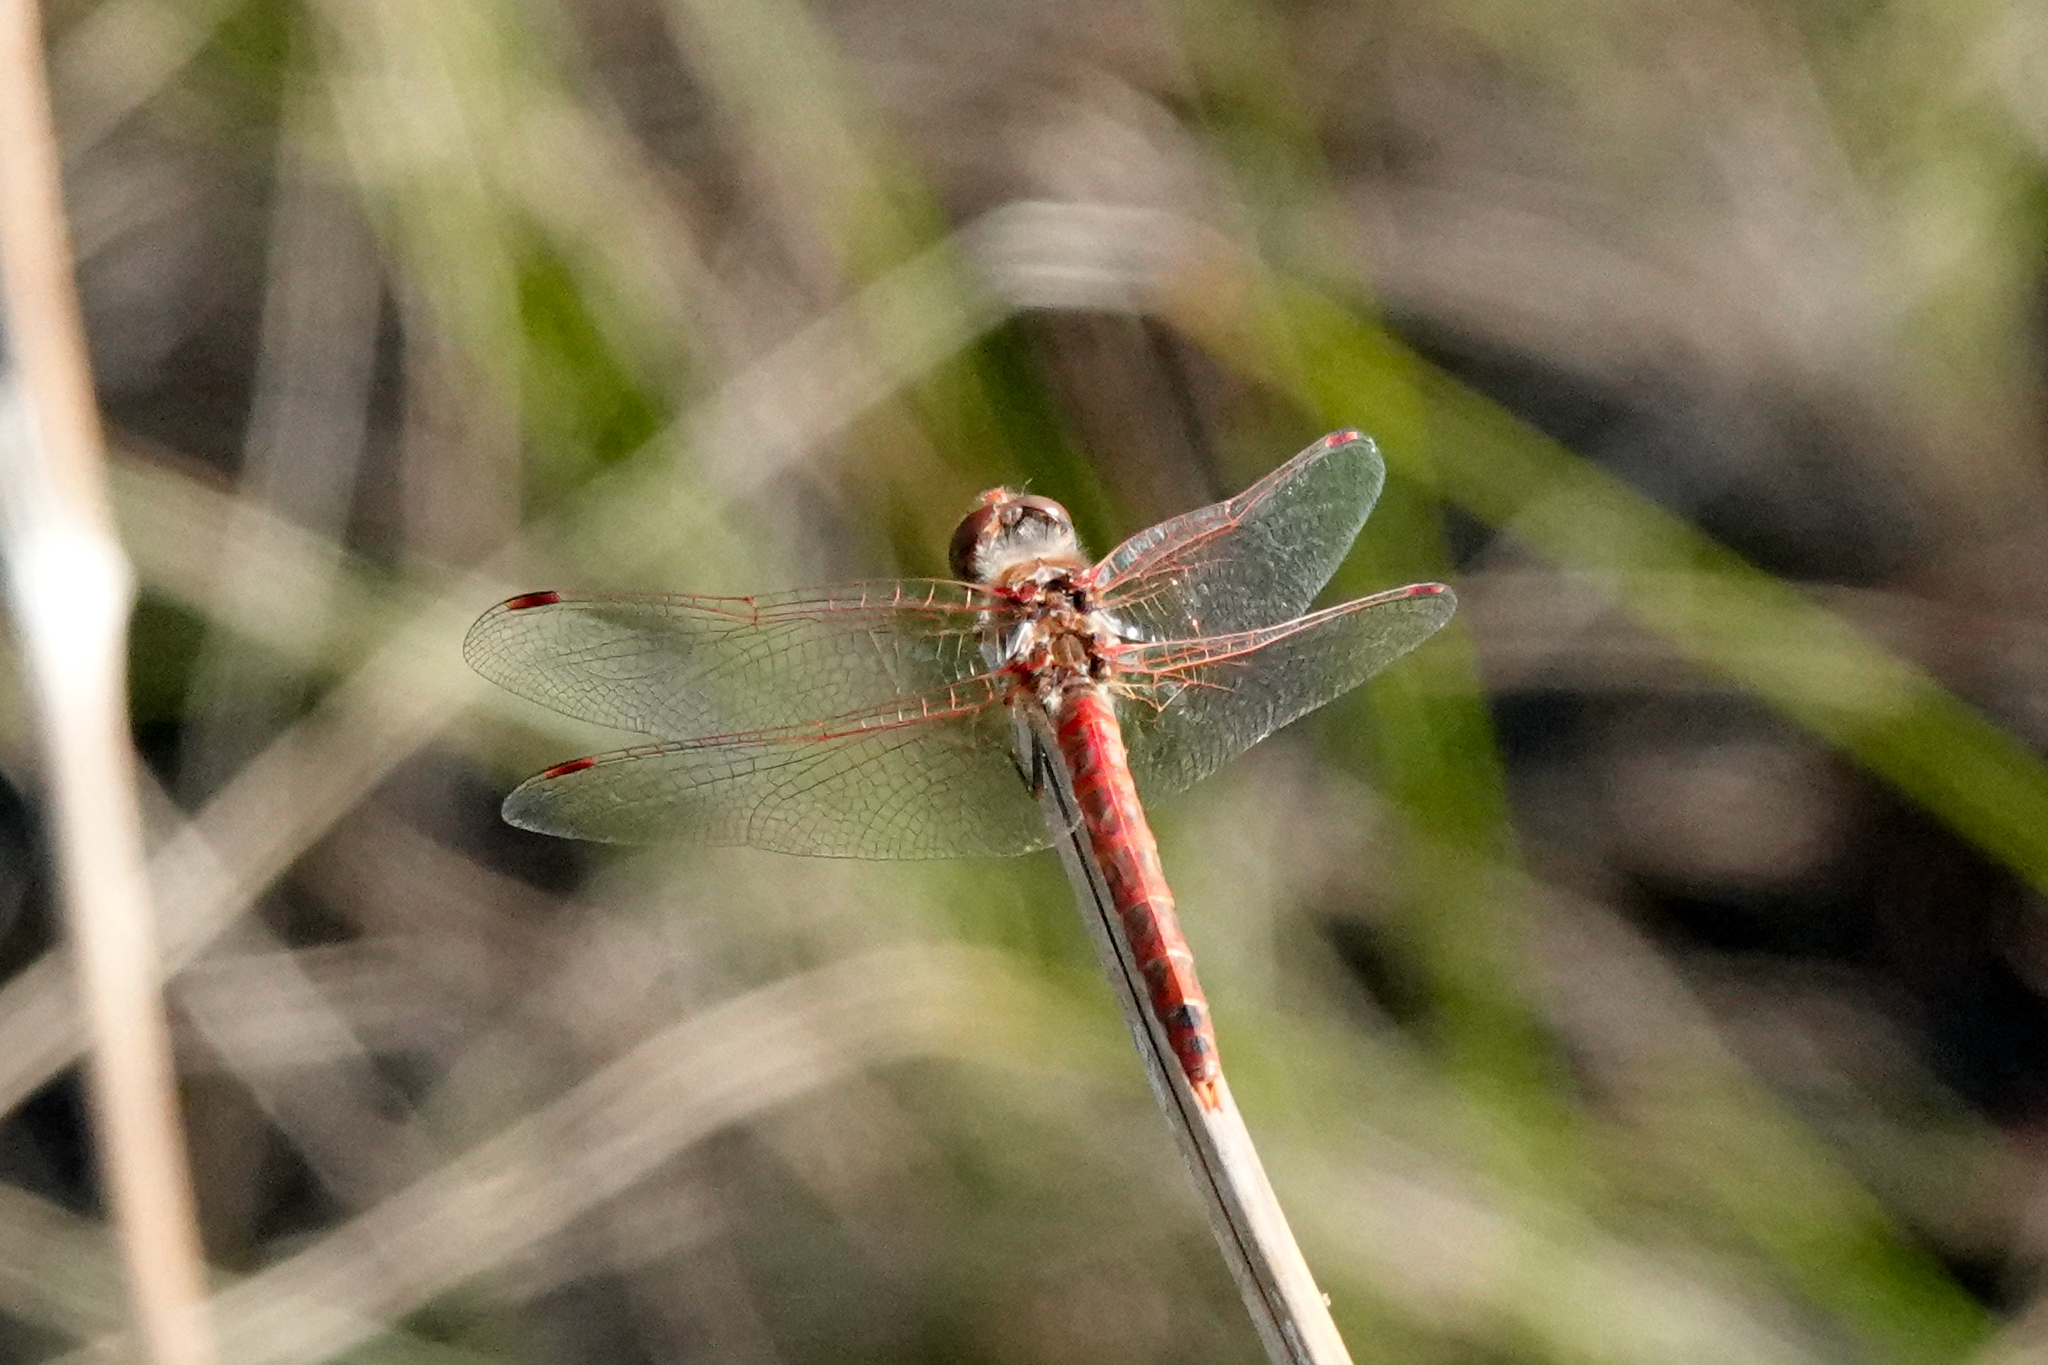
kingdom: Animalia
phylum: Arthropoda
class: Insecta
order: Odonata
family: Libellulidae
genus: Sympetrum
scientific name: Sympetrum corruptum
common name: Variegated meadowhawk
